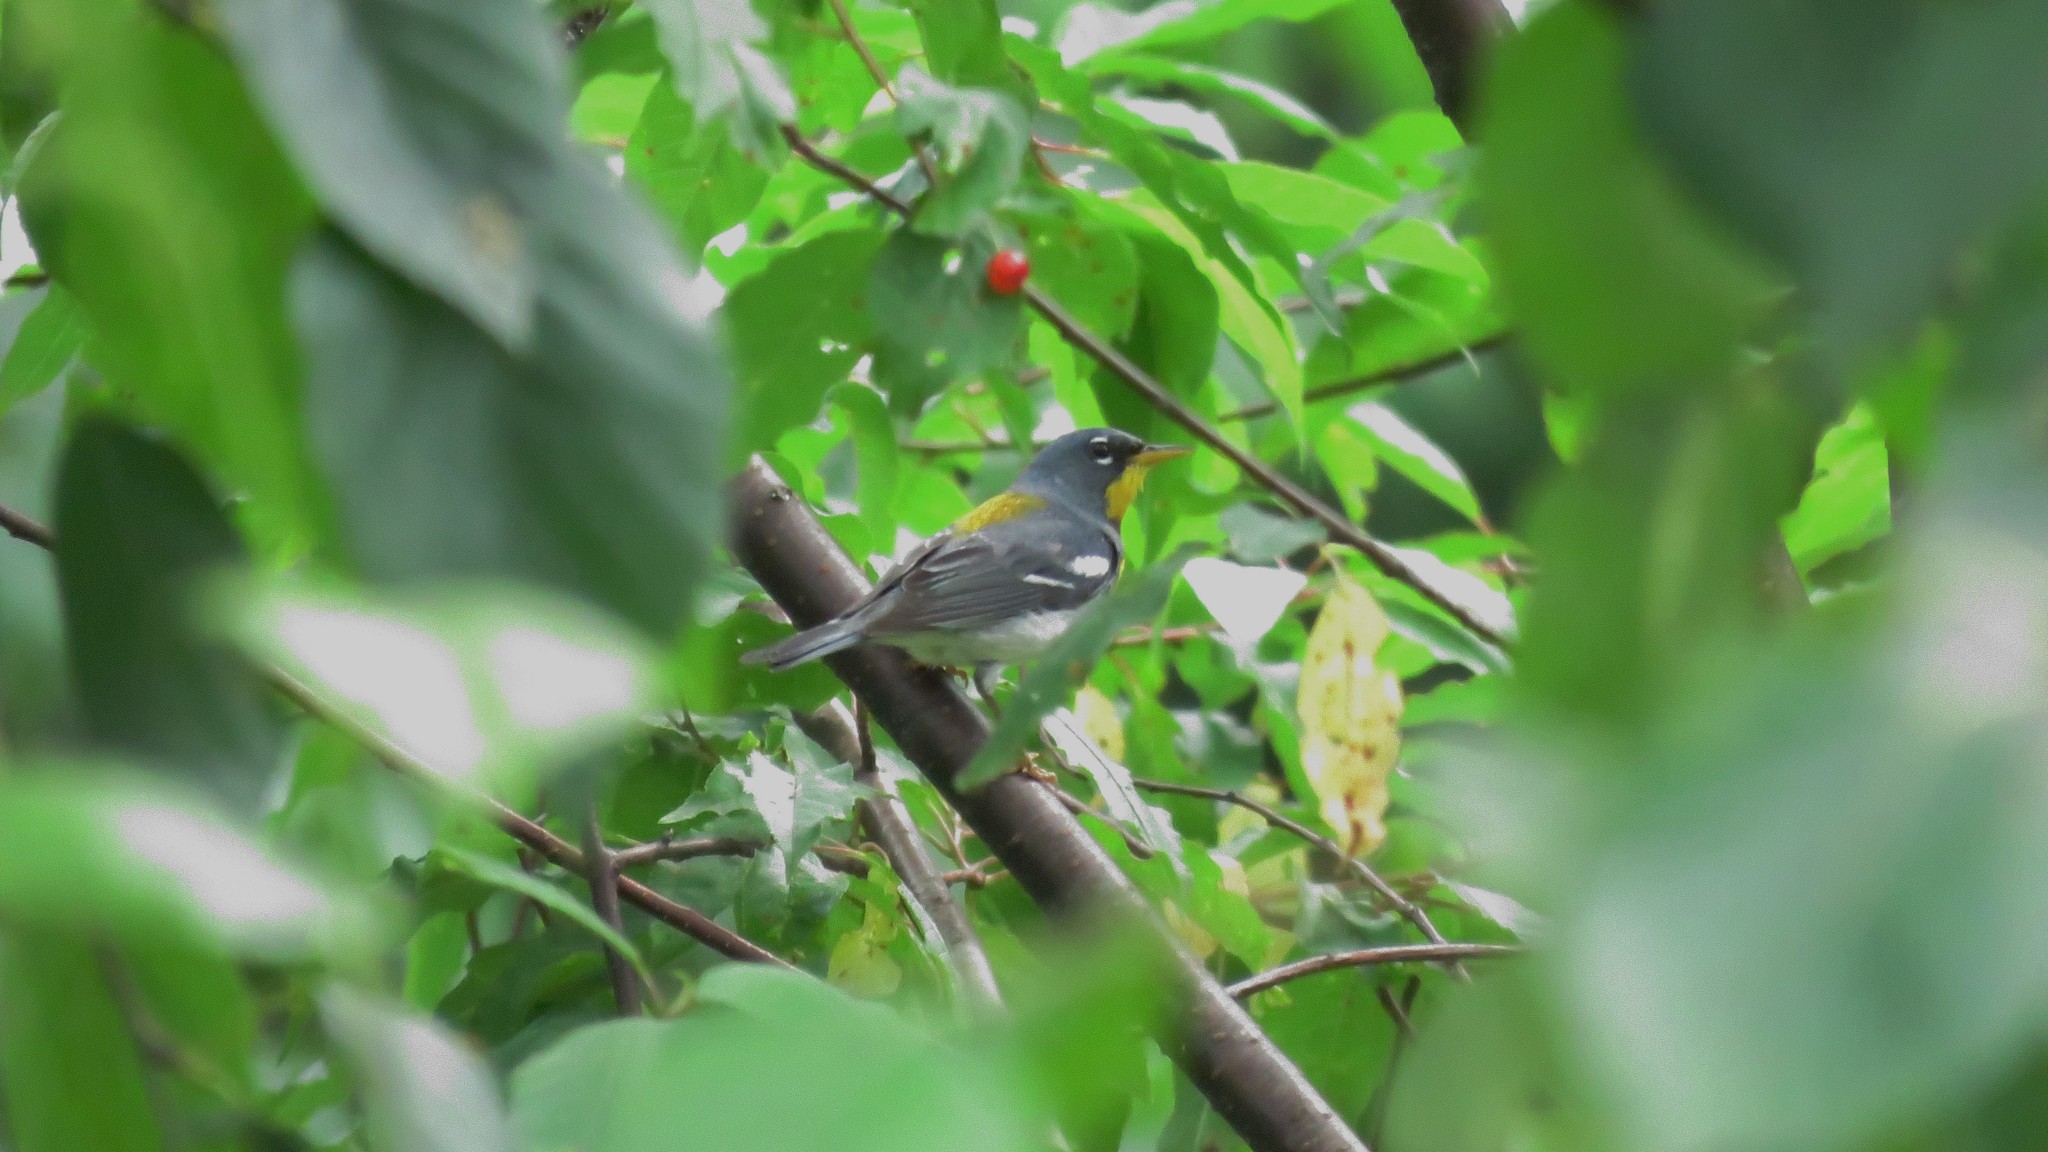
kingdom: Animalia
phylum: Chordata
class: Aves
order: Passeriformes
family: Parulidae
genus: Setophaga
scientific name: Setophaga americana
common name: Northern parula
